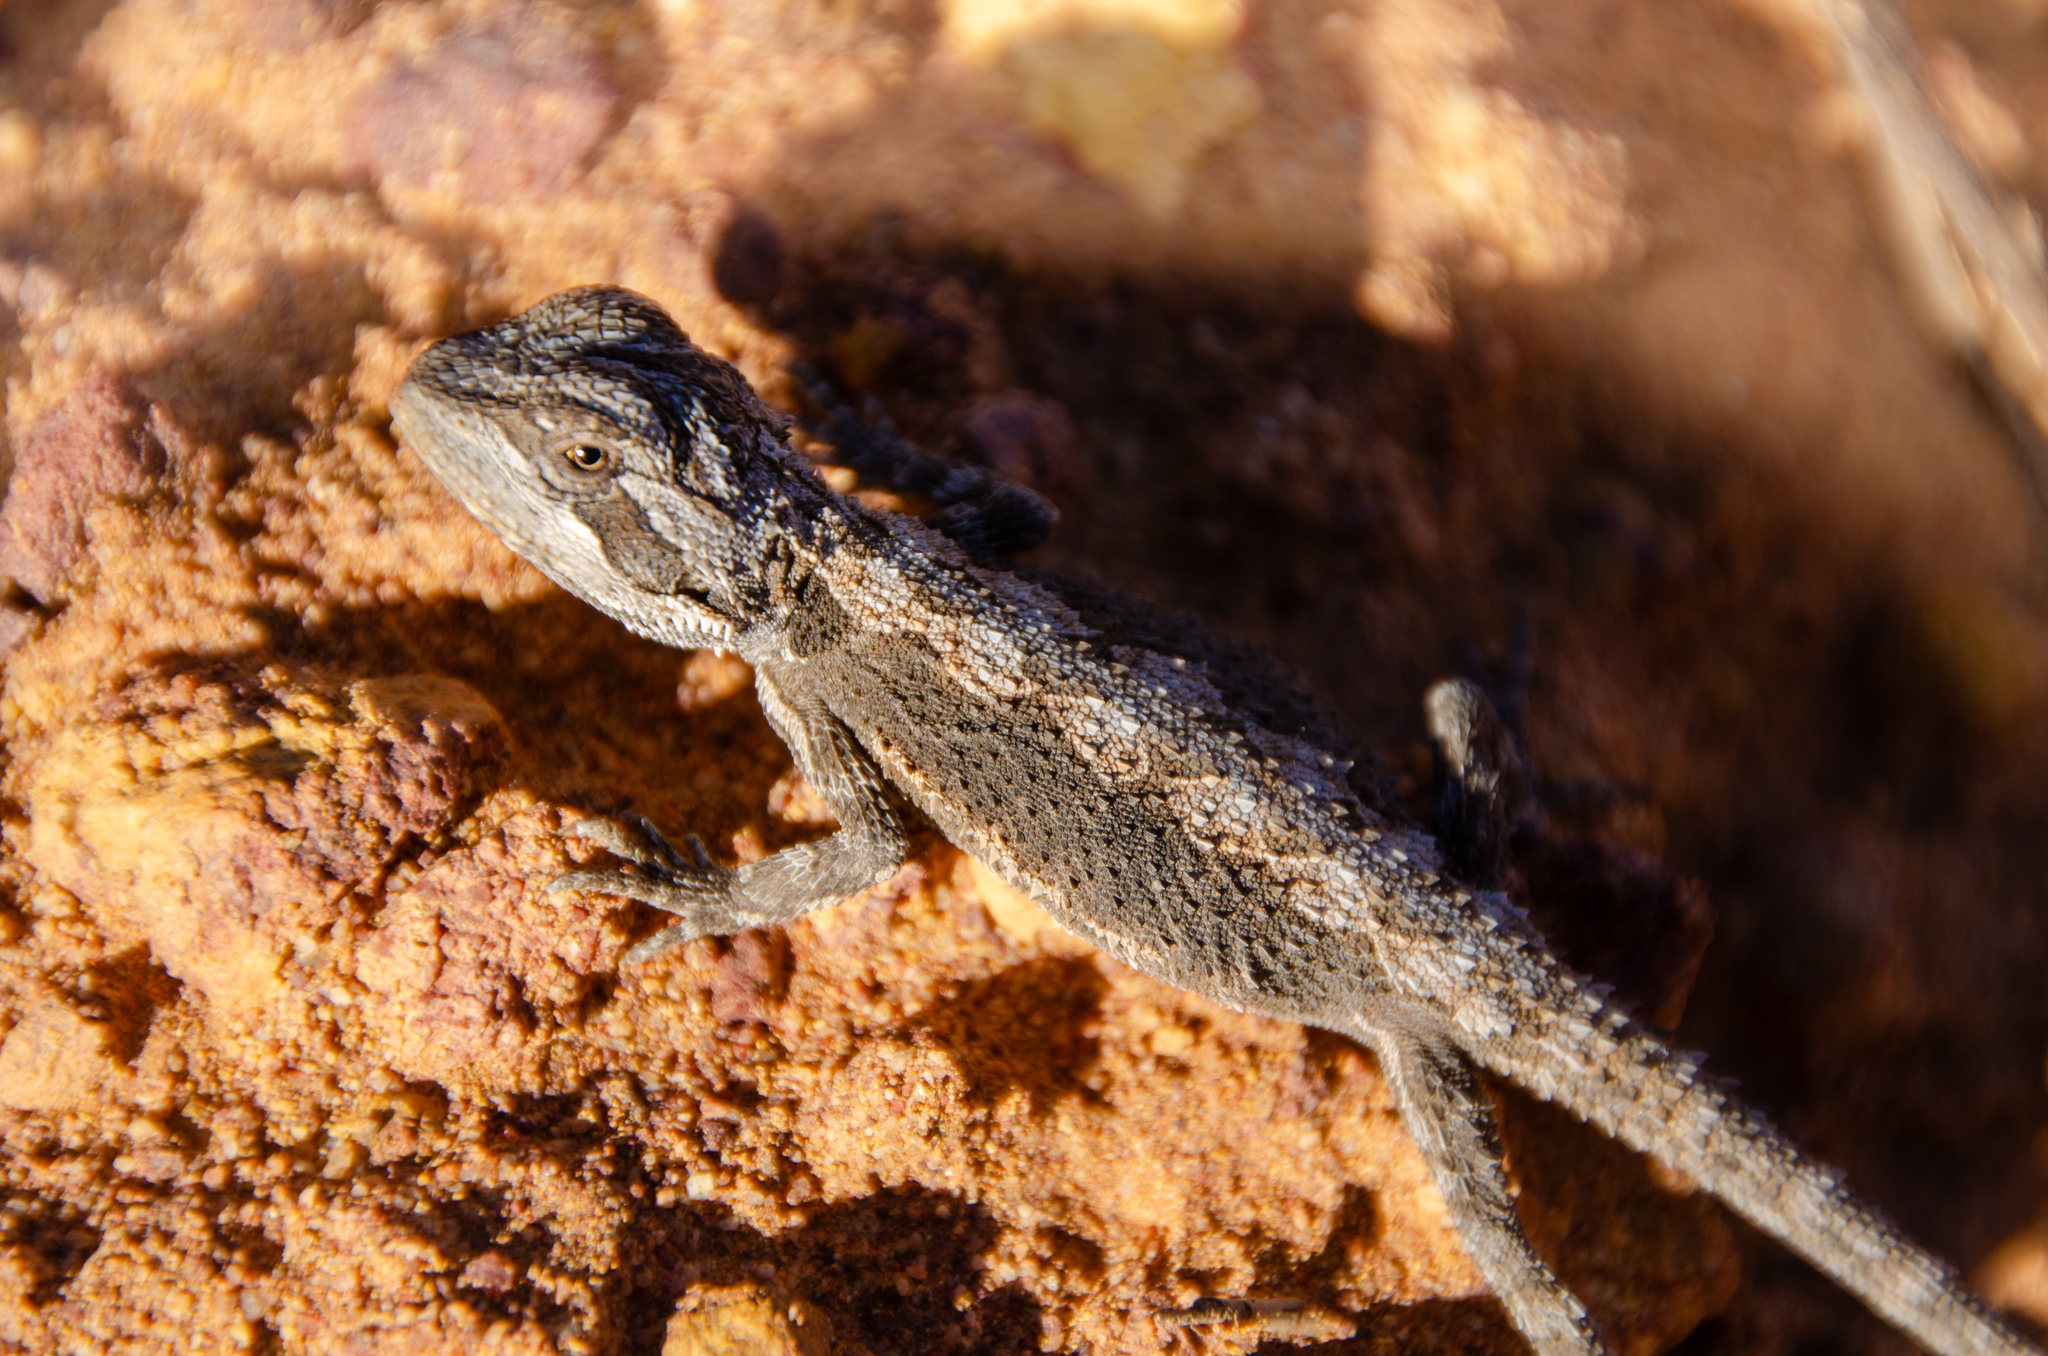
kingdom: Animalia
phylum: Chordata
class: Squamata
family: Agamidae
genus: Pogona
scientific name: Pogona minor
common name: Dwarf bearded dragon
